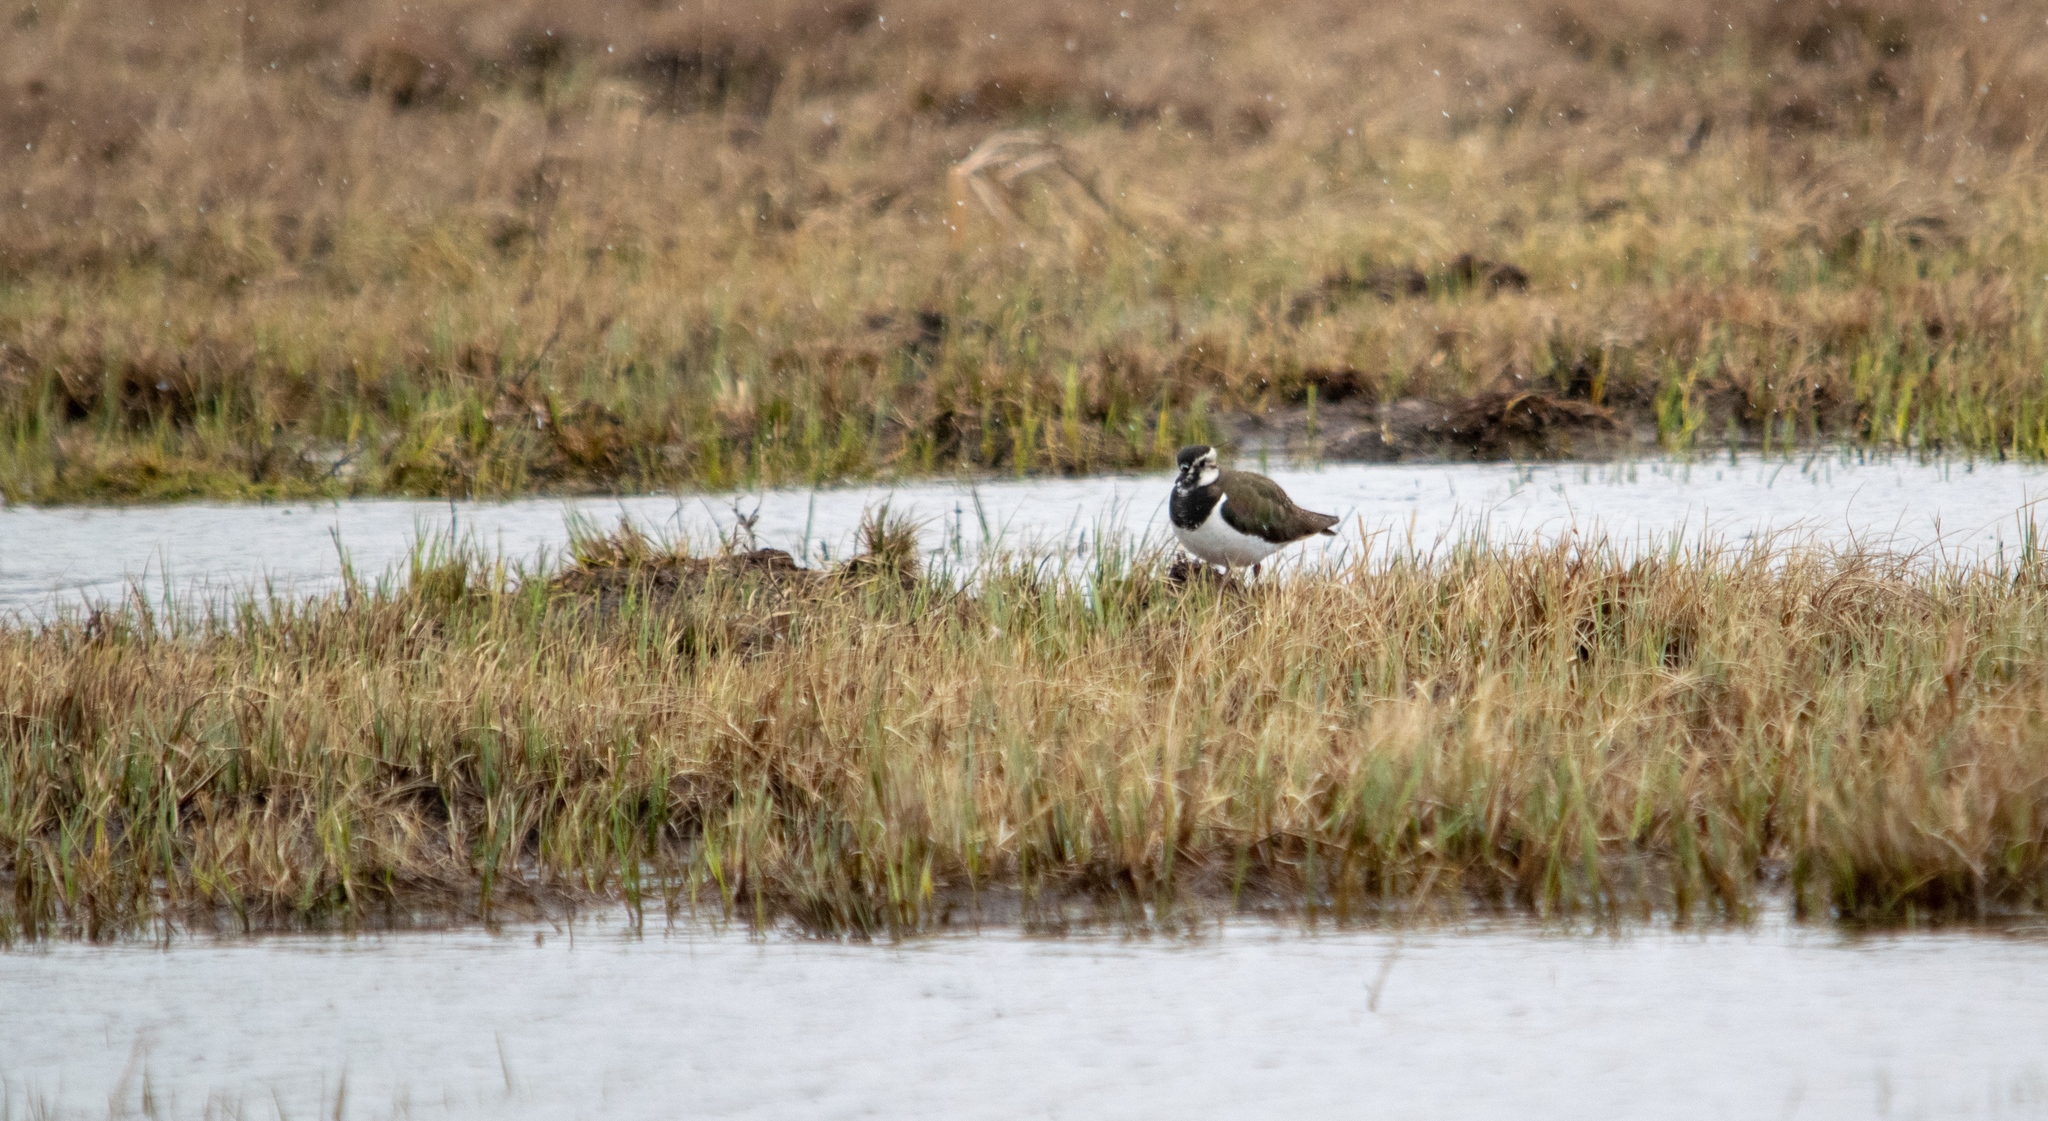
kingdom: Animalia
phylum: Chordata
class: Aves
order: Charadriiformes
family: Charadriidae
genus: Vanellus
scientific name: Vanellus vanellus
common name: Northern lapwing
